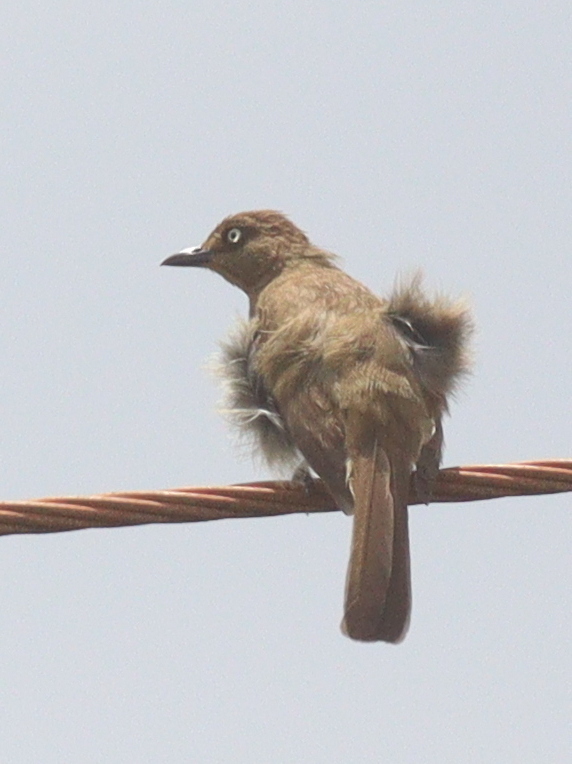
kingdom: Animalia
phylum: Chordata
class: Aves
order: Passeriformes
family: Pycnonotidae
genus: Andropadus
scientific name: Andropadus importunus
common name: Sombre greenbul
